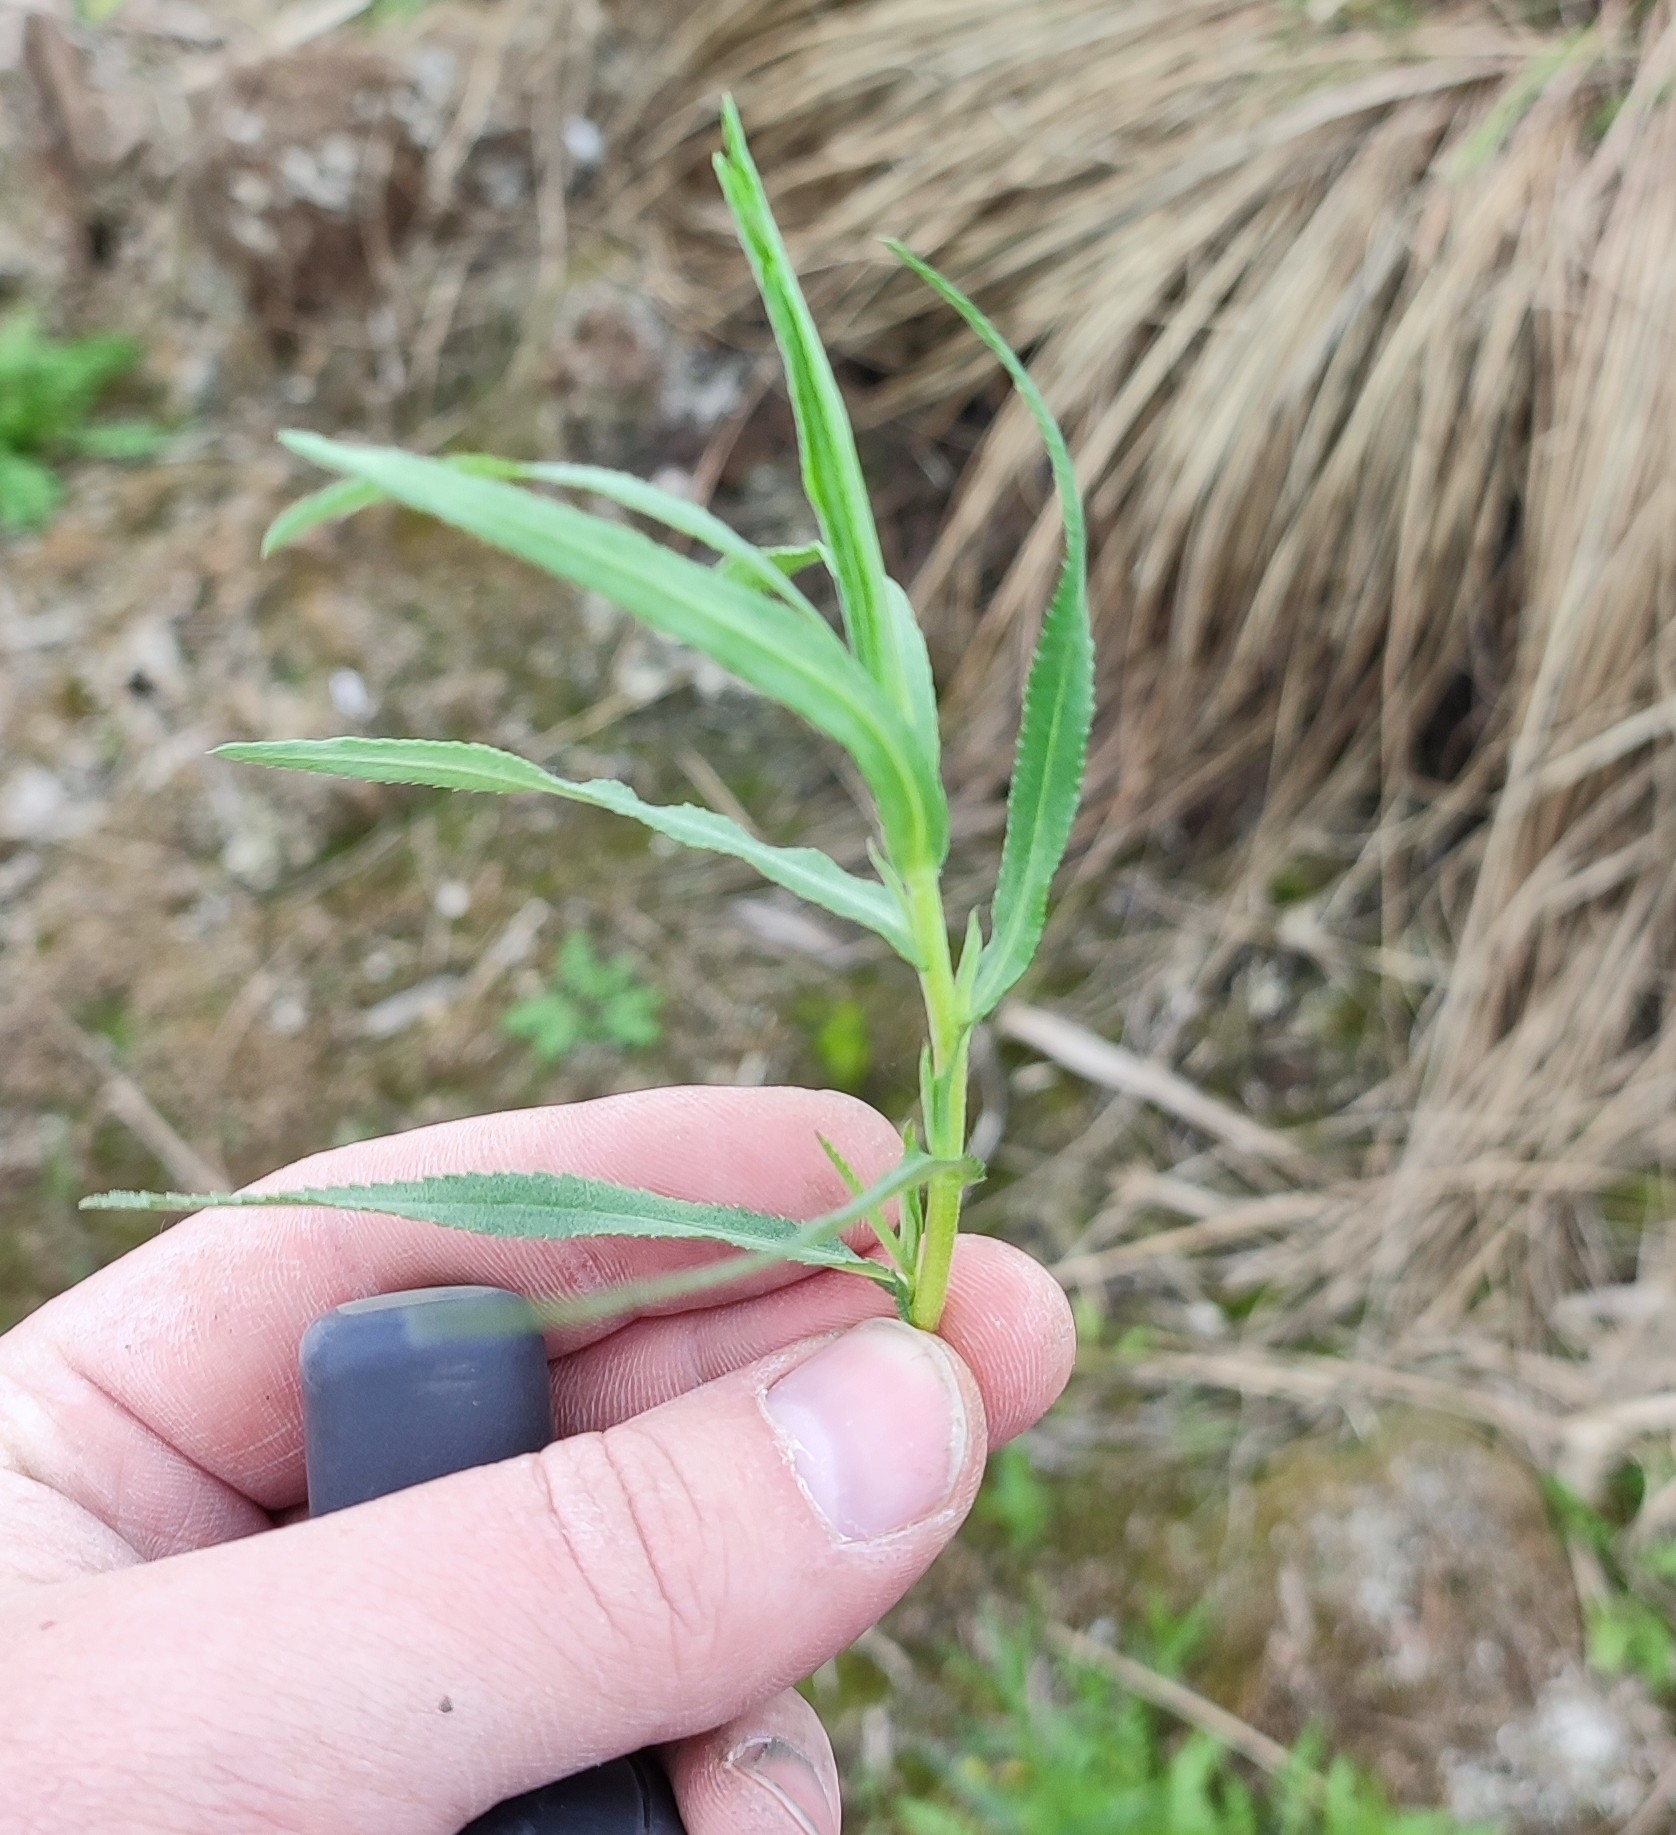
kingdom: Plantae
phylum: Tracheophyta
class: Magnoliopsida
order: Asterales
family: Asteraceae
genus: Achillea
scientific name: Achillea salicifolia
